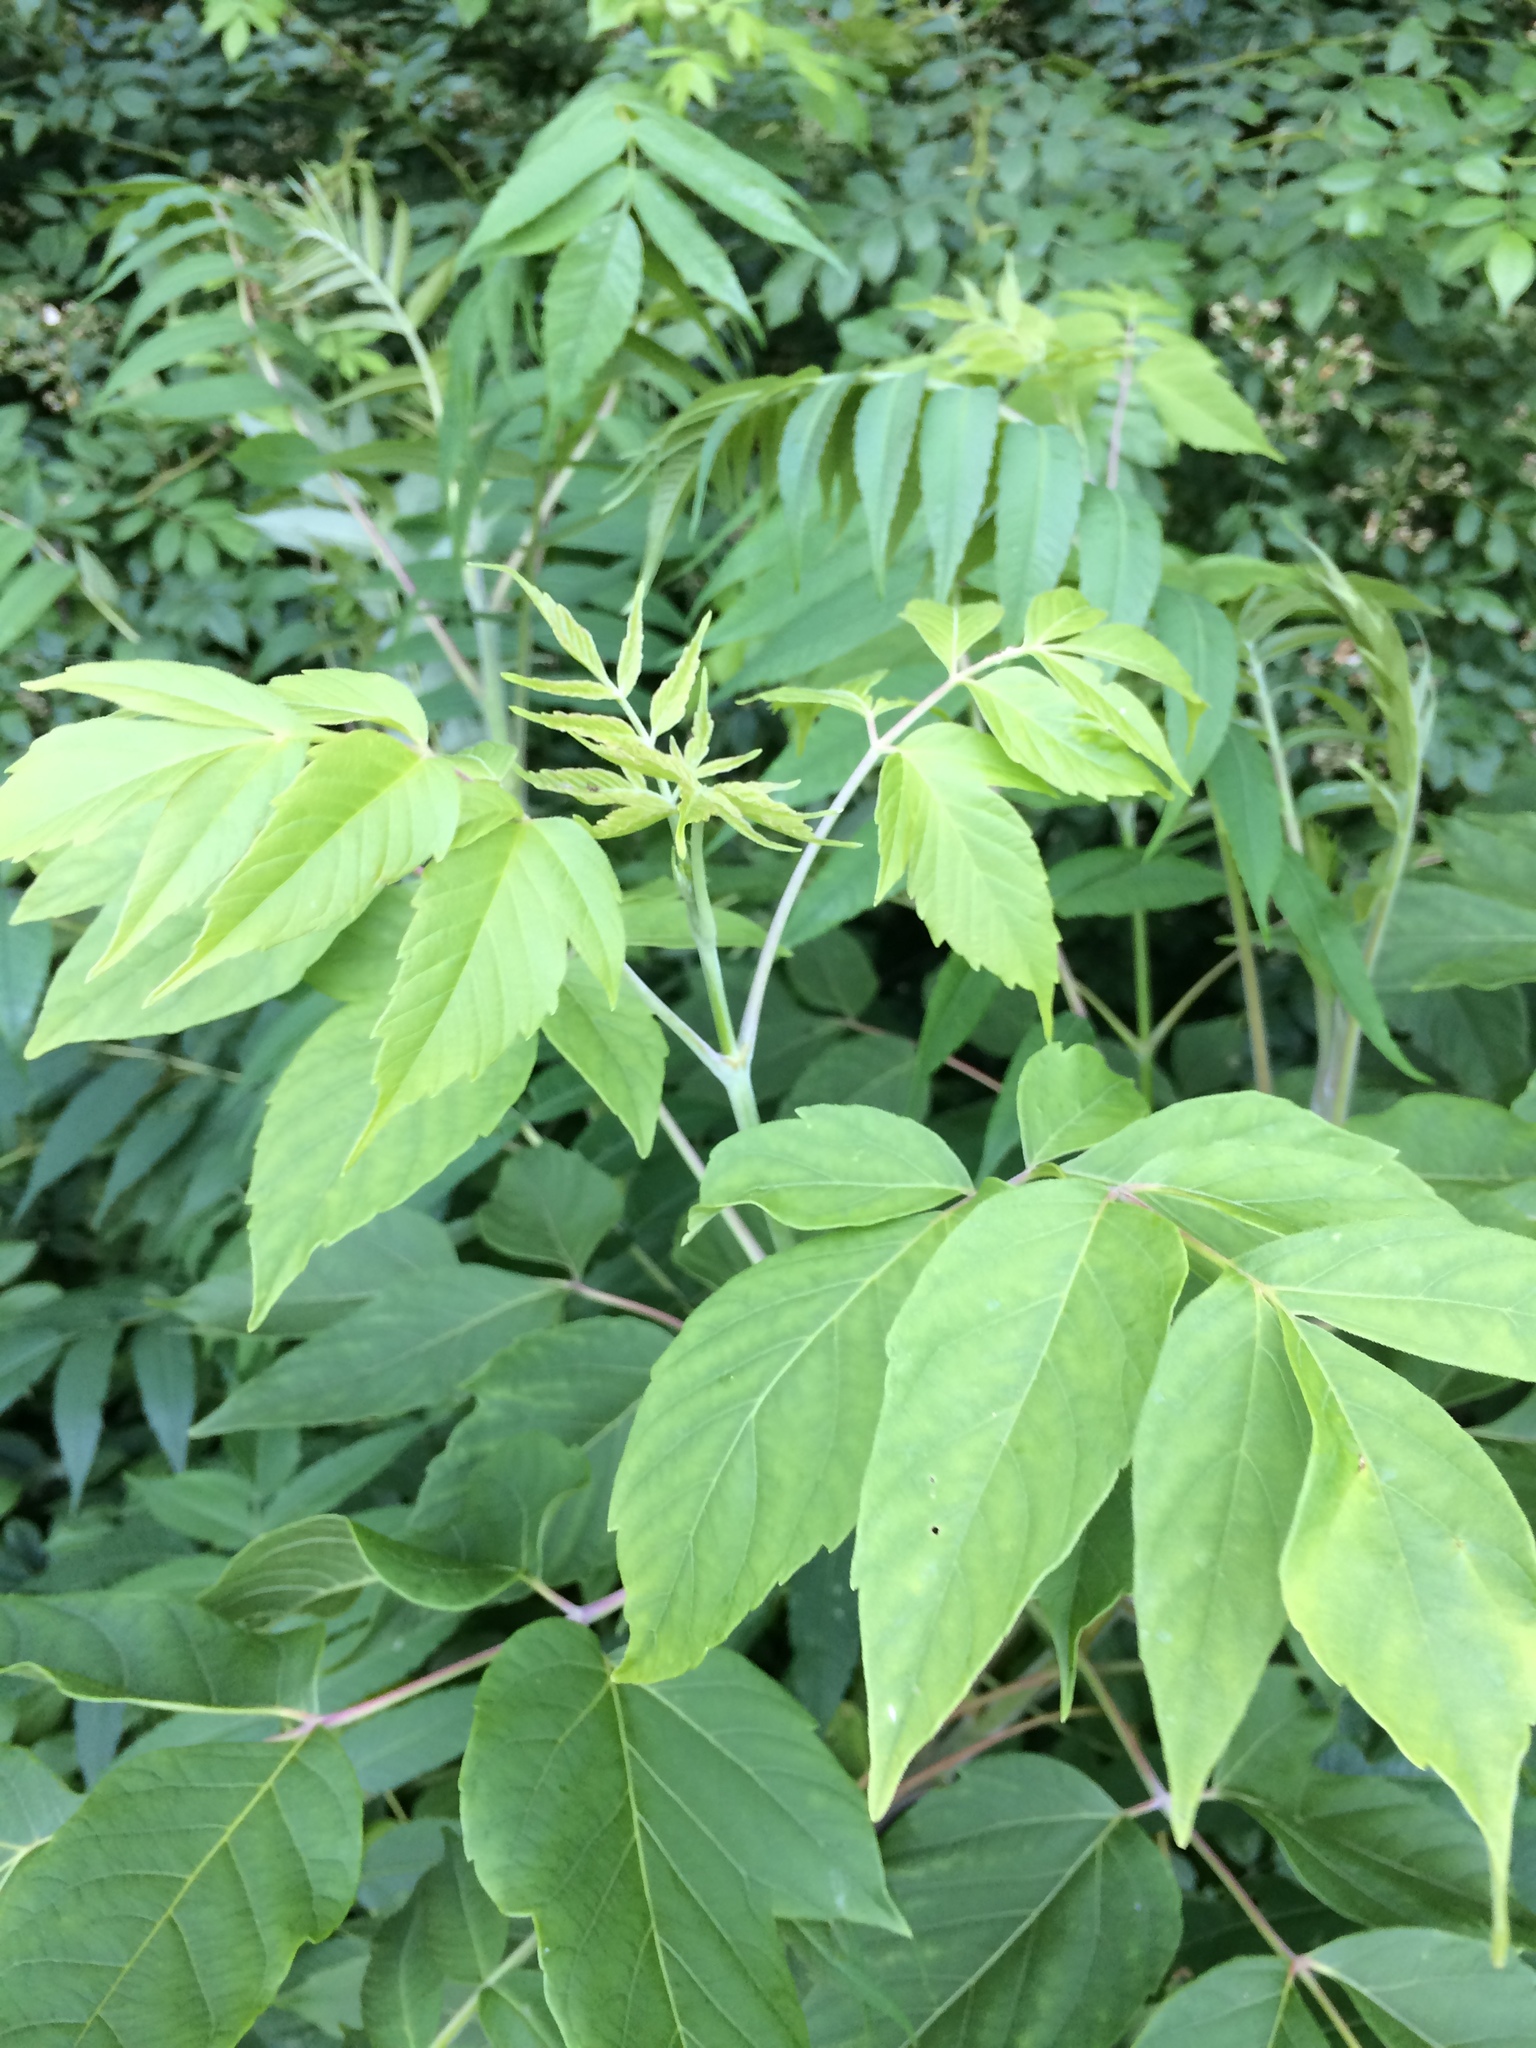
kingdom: Plantae
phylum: Tracheophyta
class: Magnoliopsida
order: Sapindales
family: Sapindaceae
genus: Acer
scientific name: Acer negundo
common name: Ashleaf maple
